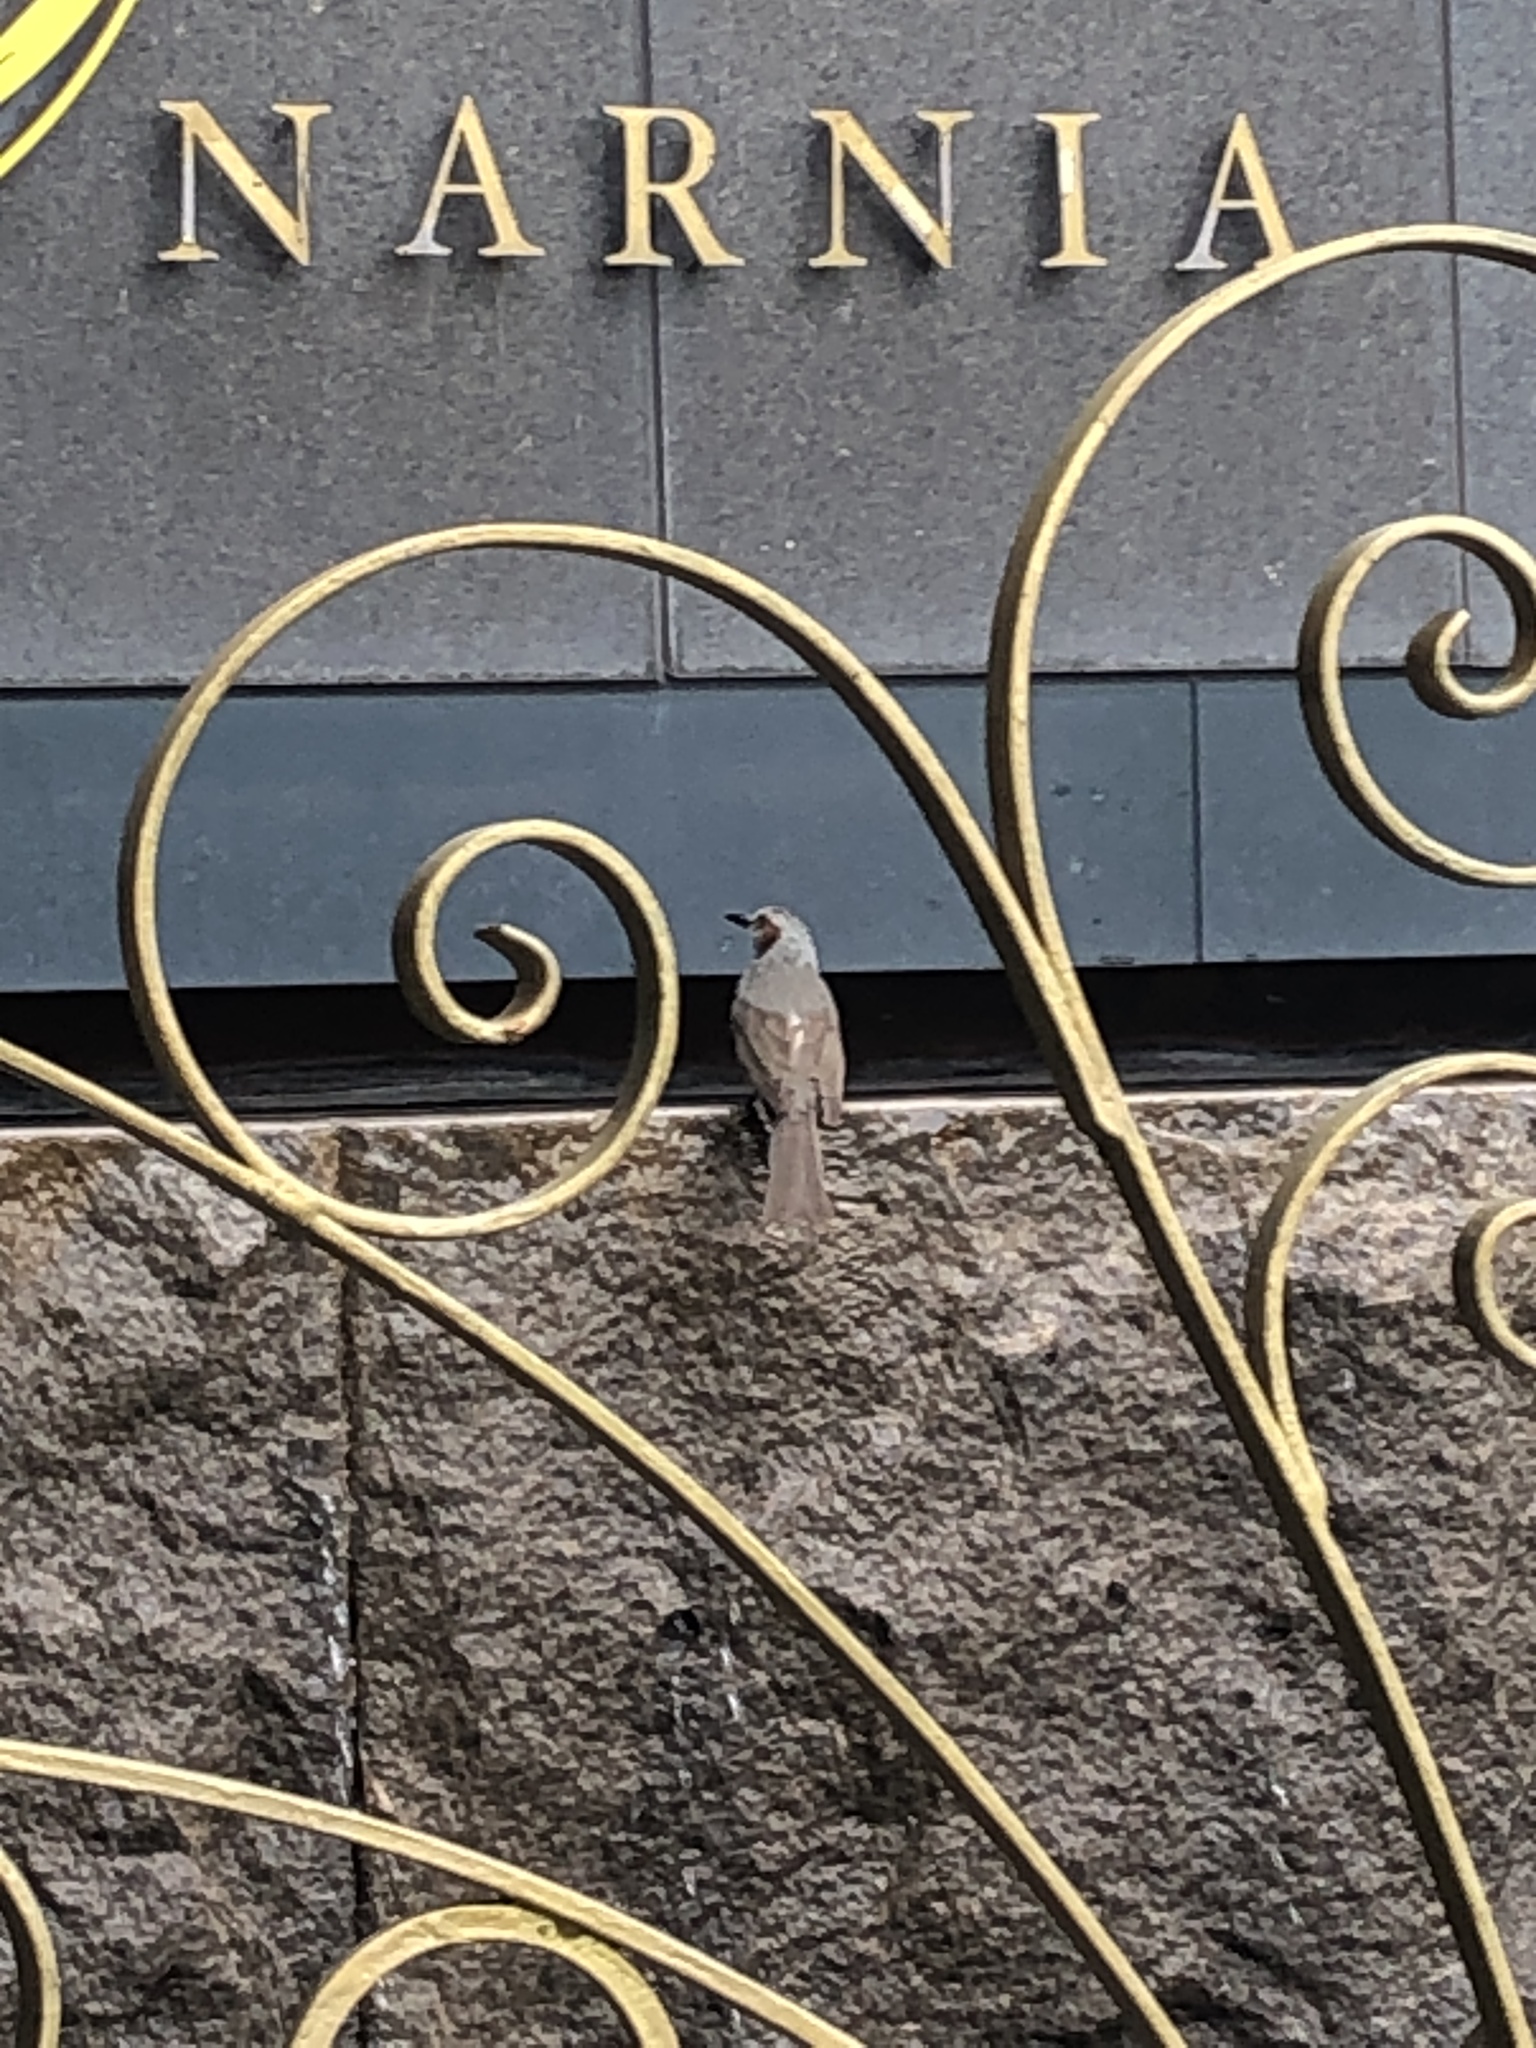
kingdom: Animalia
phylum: Chordata
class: Aves
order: Passeriformes
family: Pycnonotidae
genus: Hypsipetes
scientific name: Hypsipetes amaurotis
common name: Brown-eared bulbul
